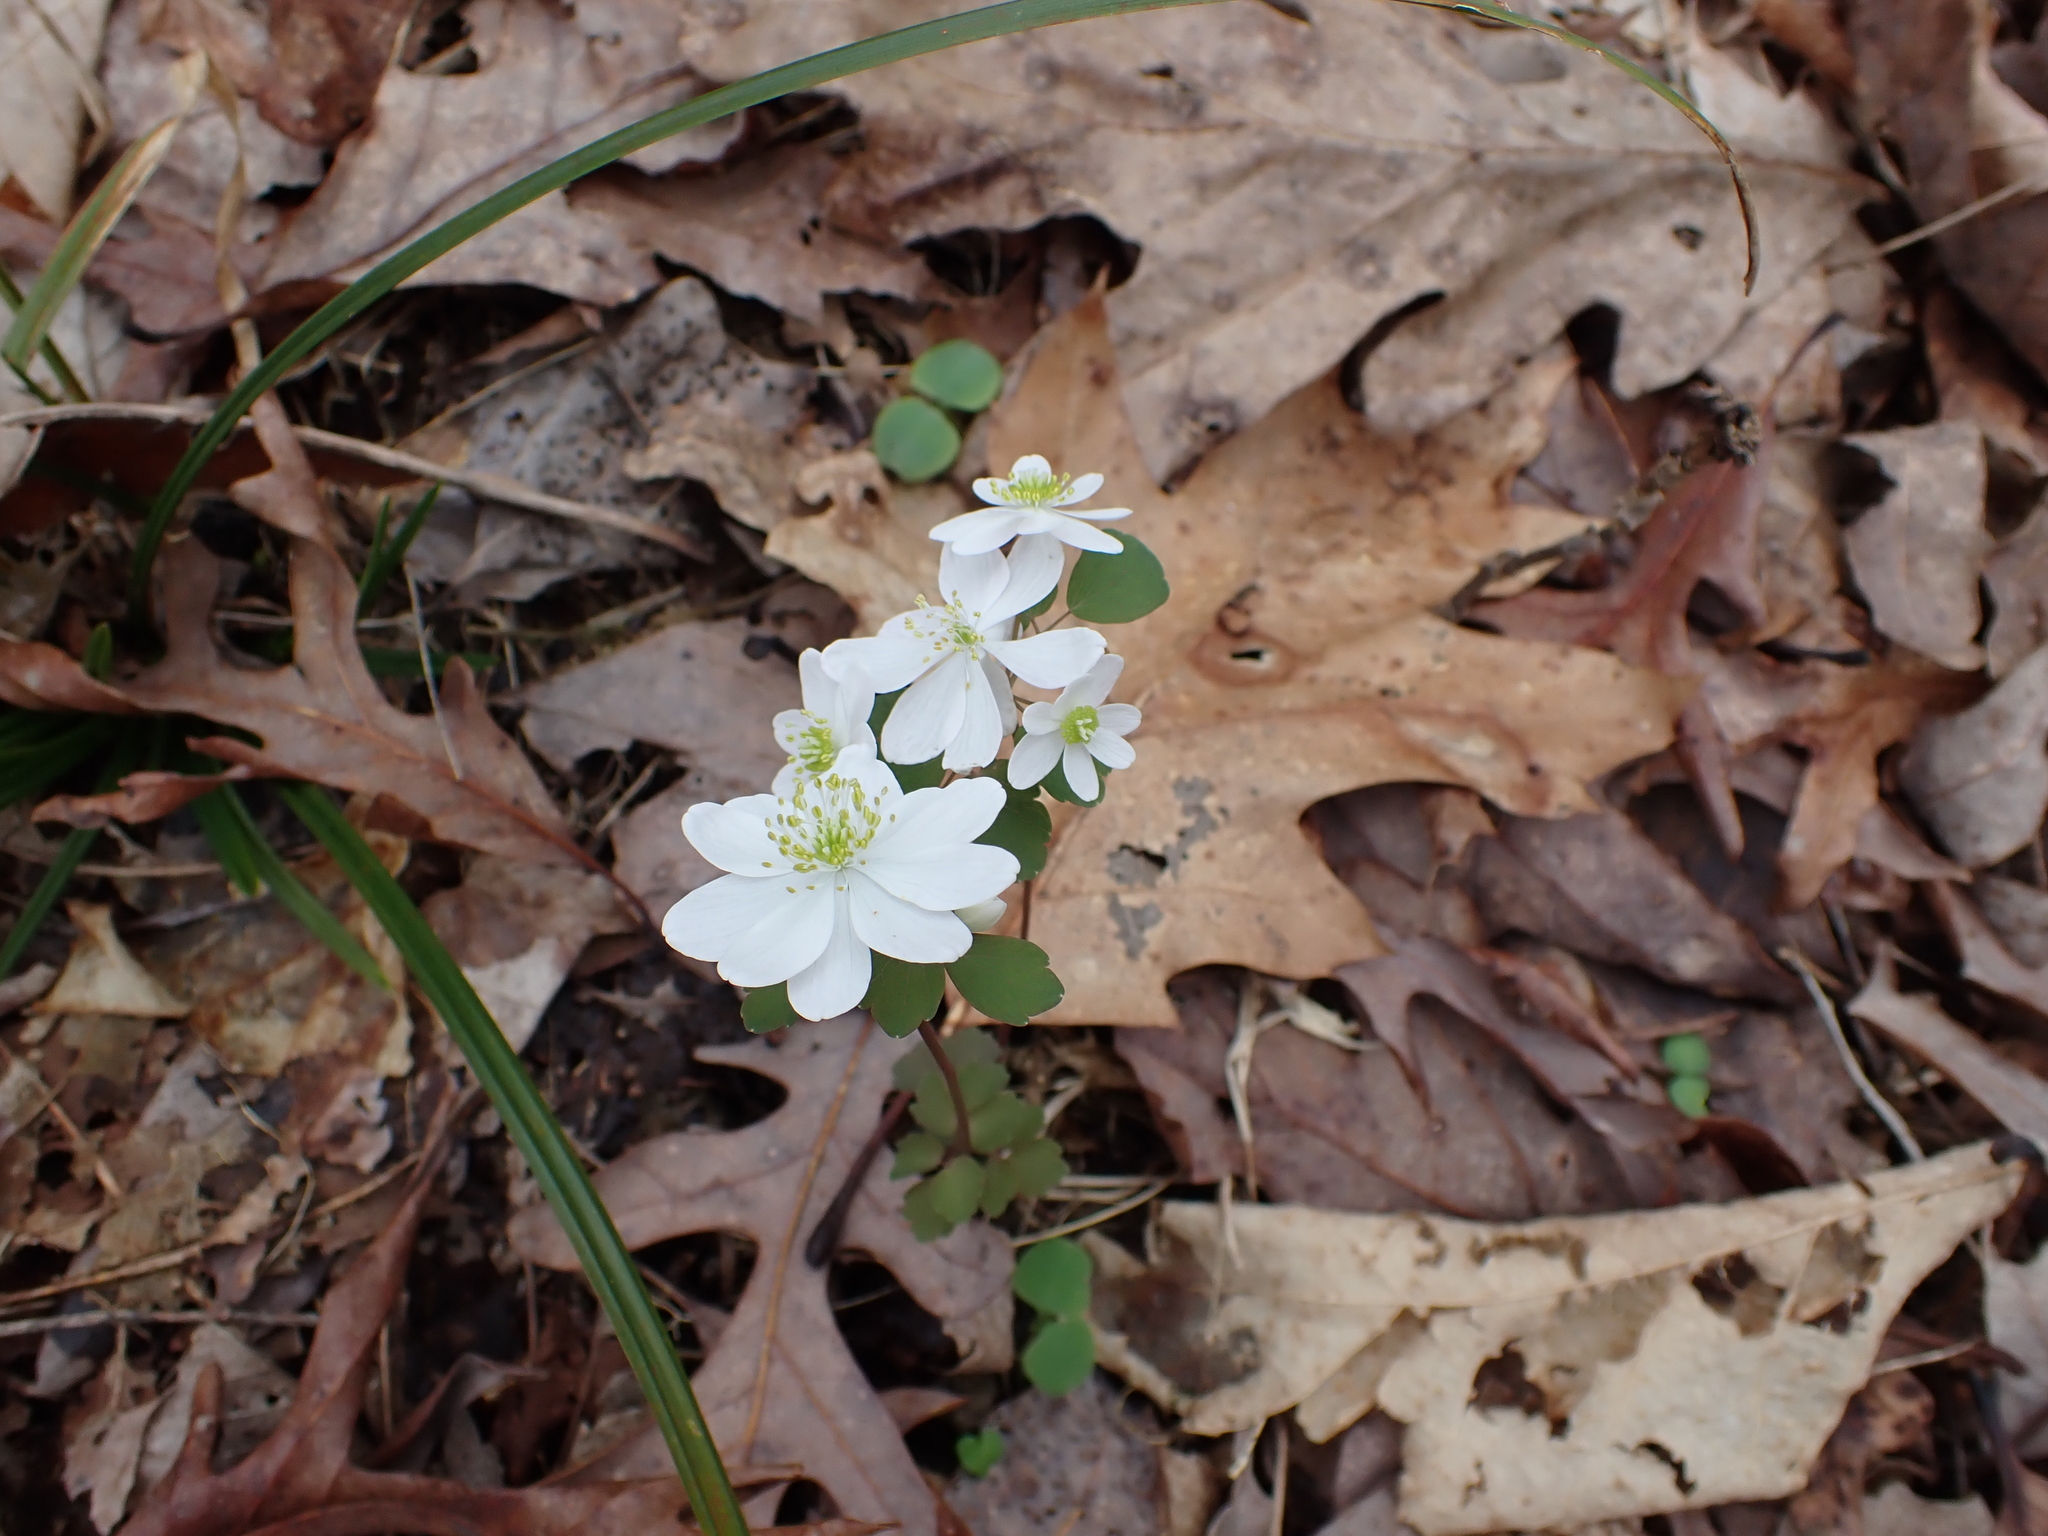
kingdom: Plantae
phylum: Tracheophyta
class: Magnoliopsida
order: Ranunculales
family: Ranunculaceae
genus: Thalictrum
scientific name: Thalictrum thalictroides
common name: Rue-anemone
